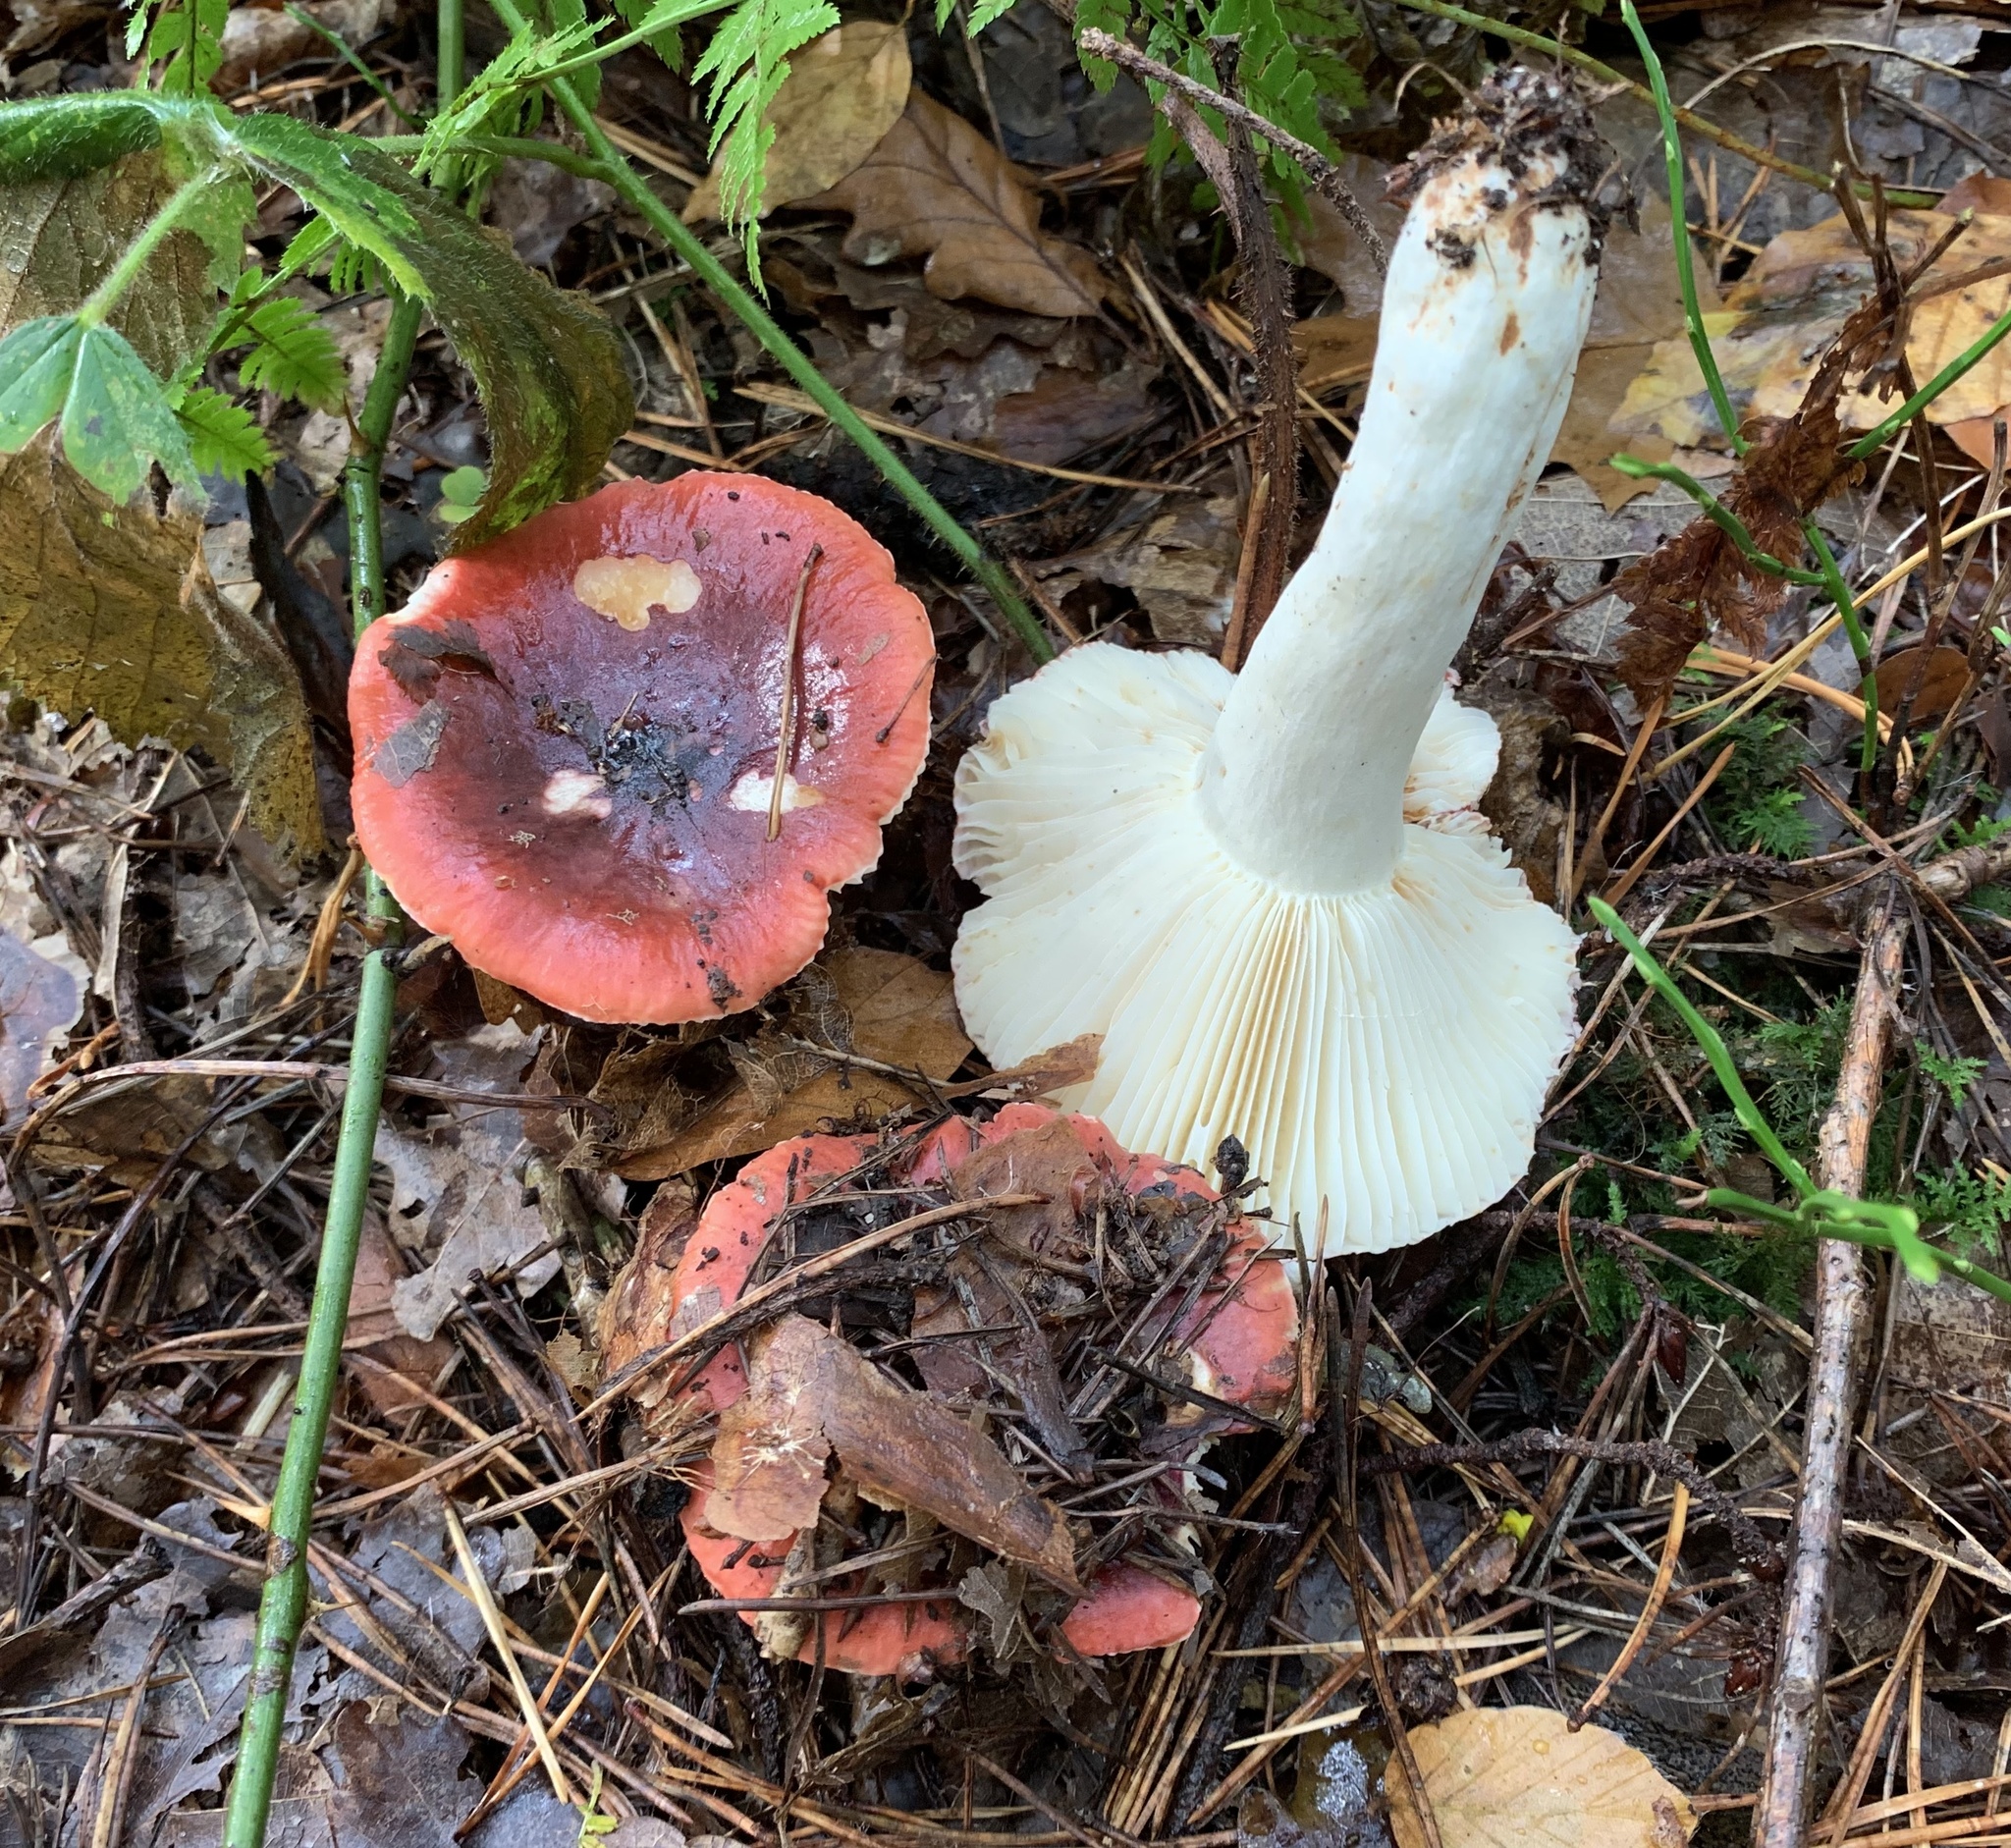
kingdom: Fungi
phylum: Basidiomycota
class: Agaricomycetes
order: Russulales
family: Russulaceae
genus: Russula
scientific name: Russula atrorubens
